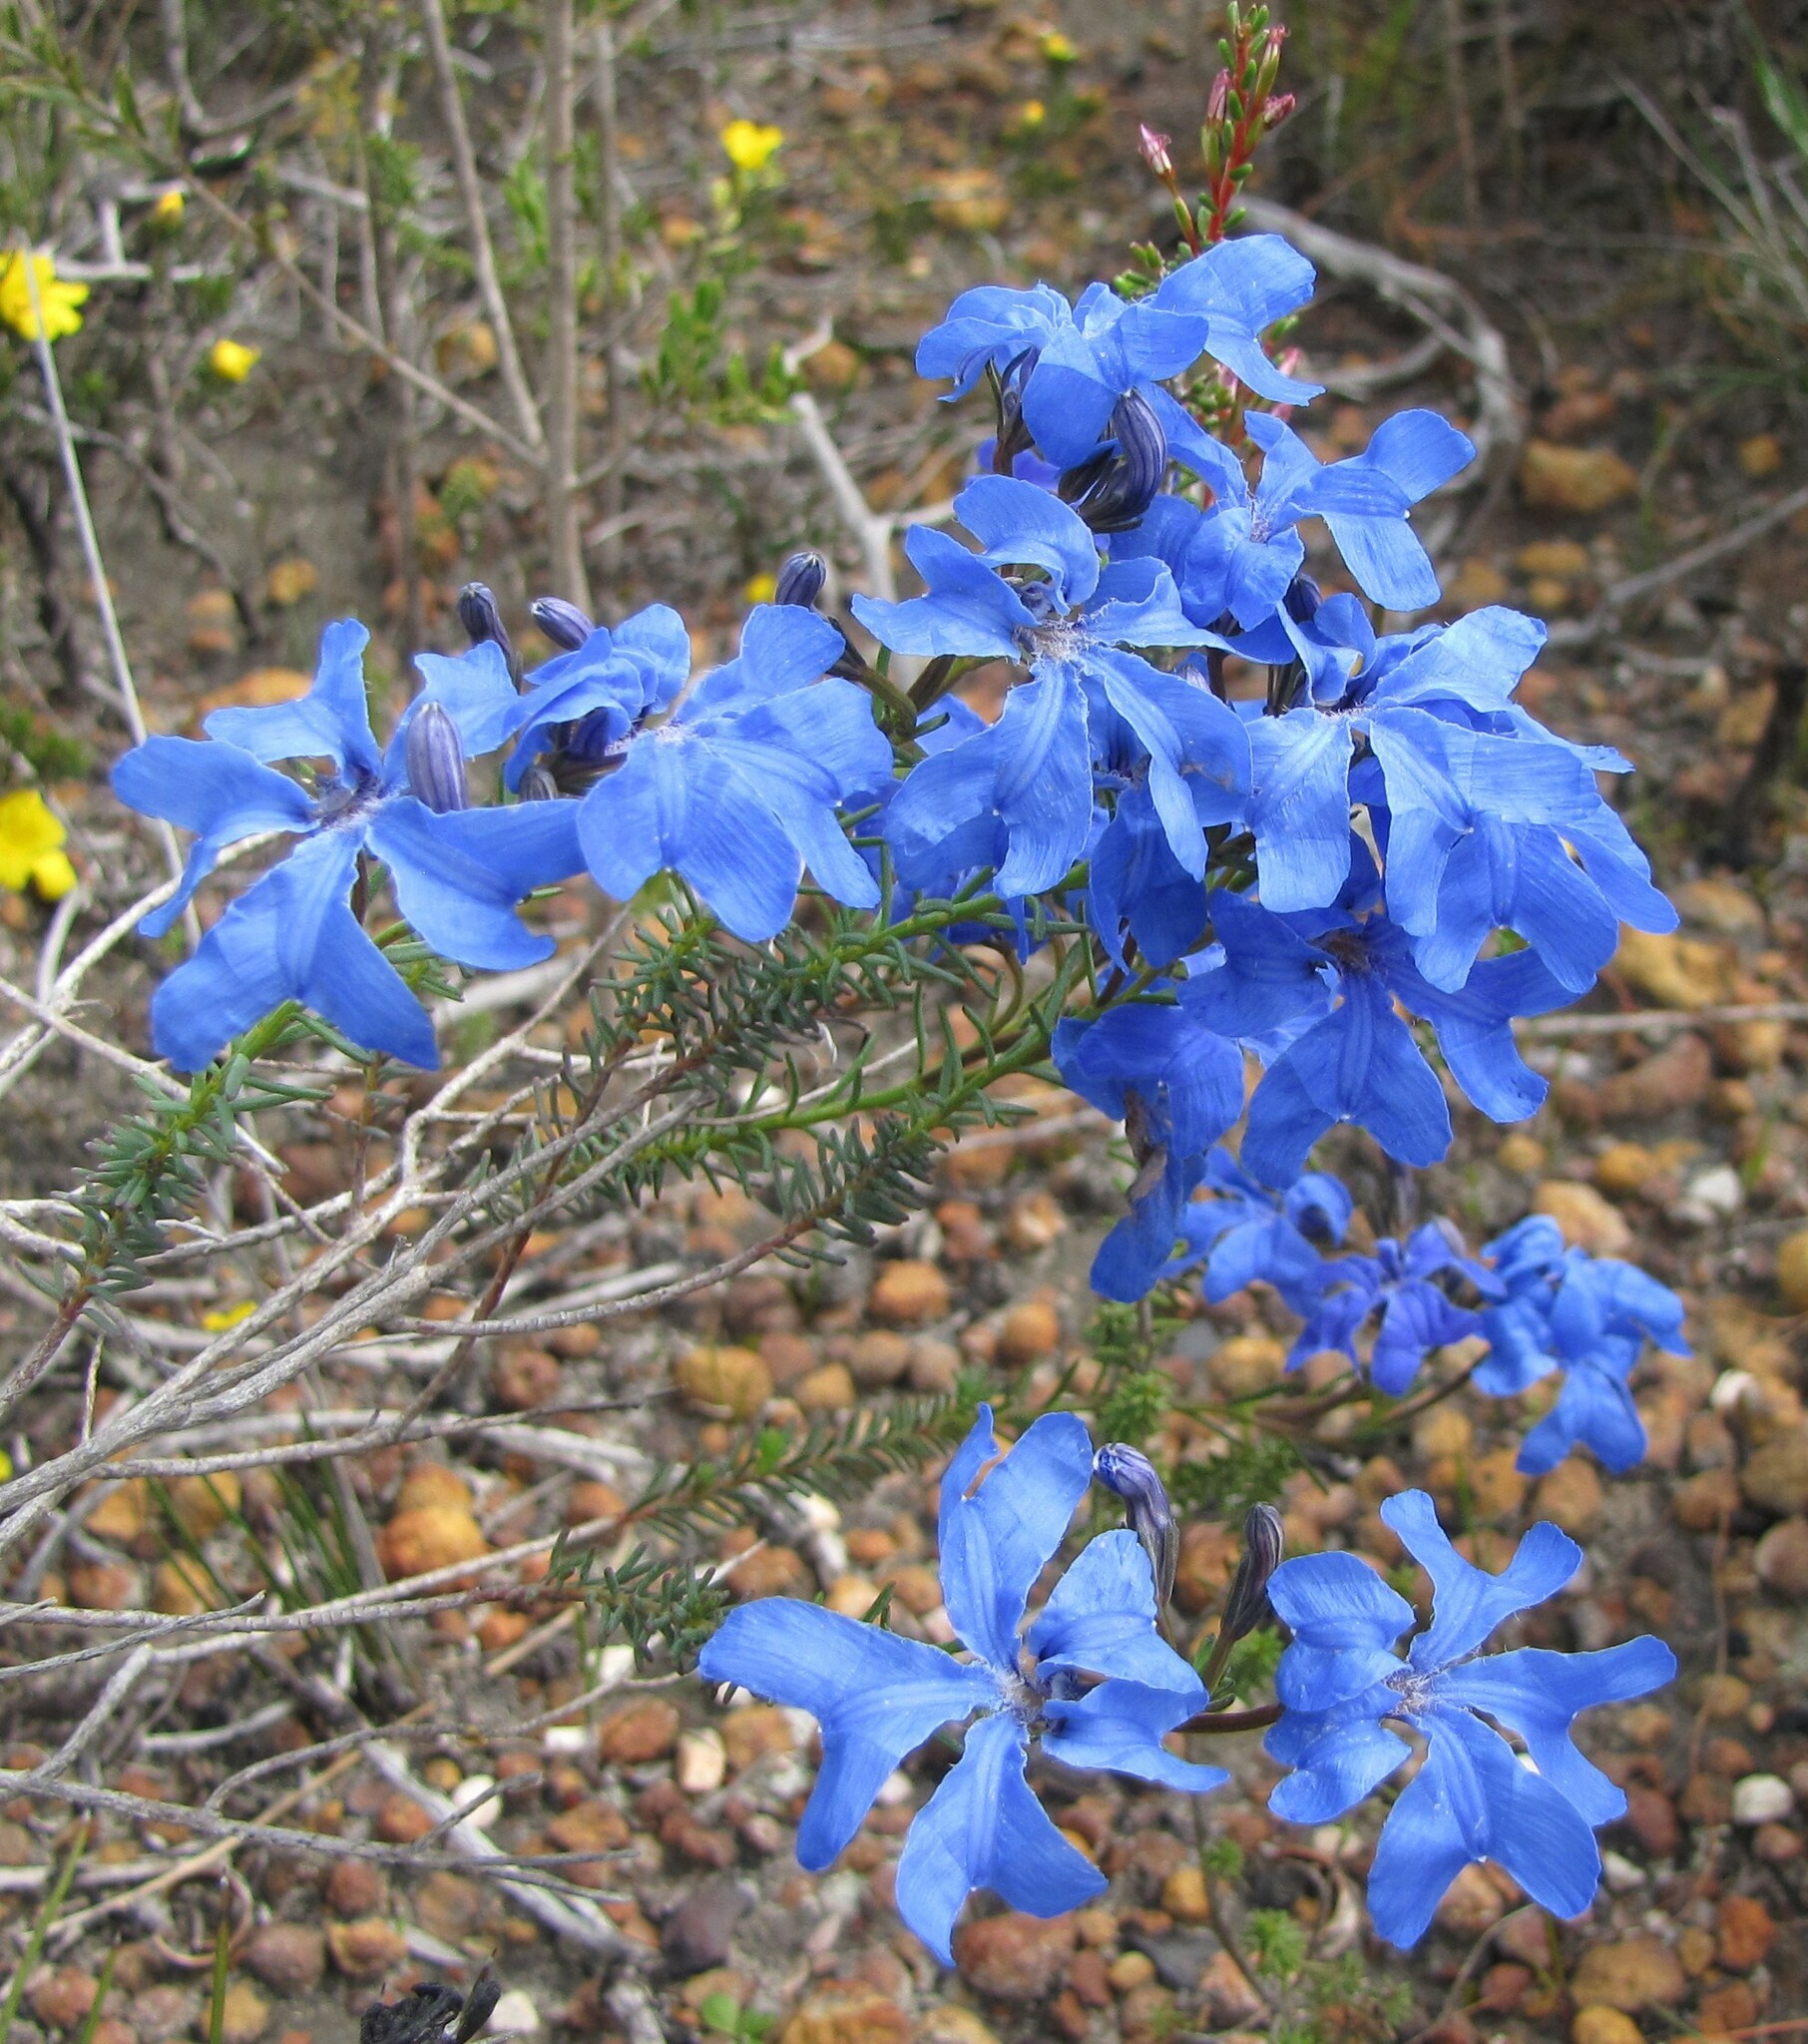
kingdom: Plantae
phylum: Tracheophyta
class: Magnoliopsida
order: Asterales
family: Goodeniaceae
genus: Lechenaultia
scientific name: Lechenaultia biloba
